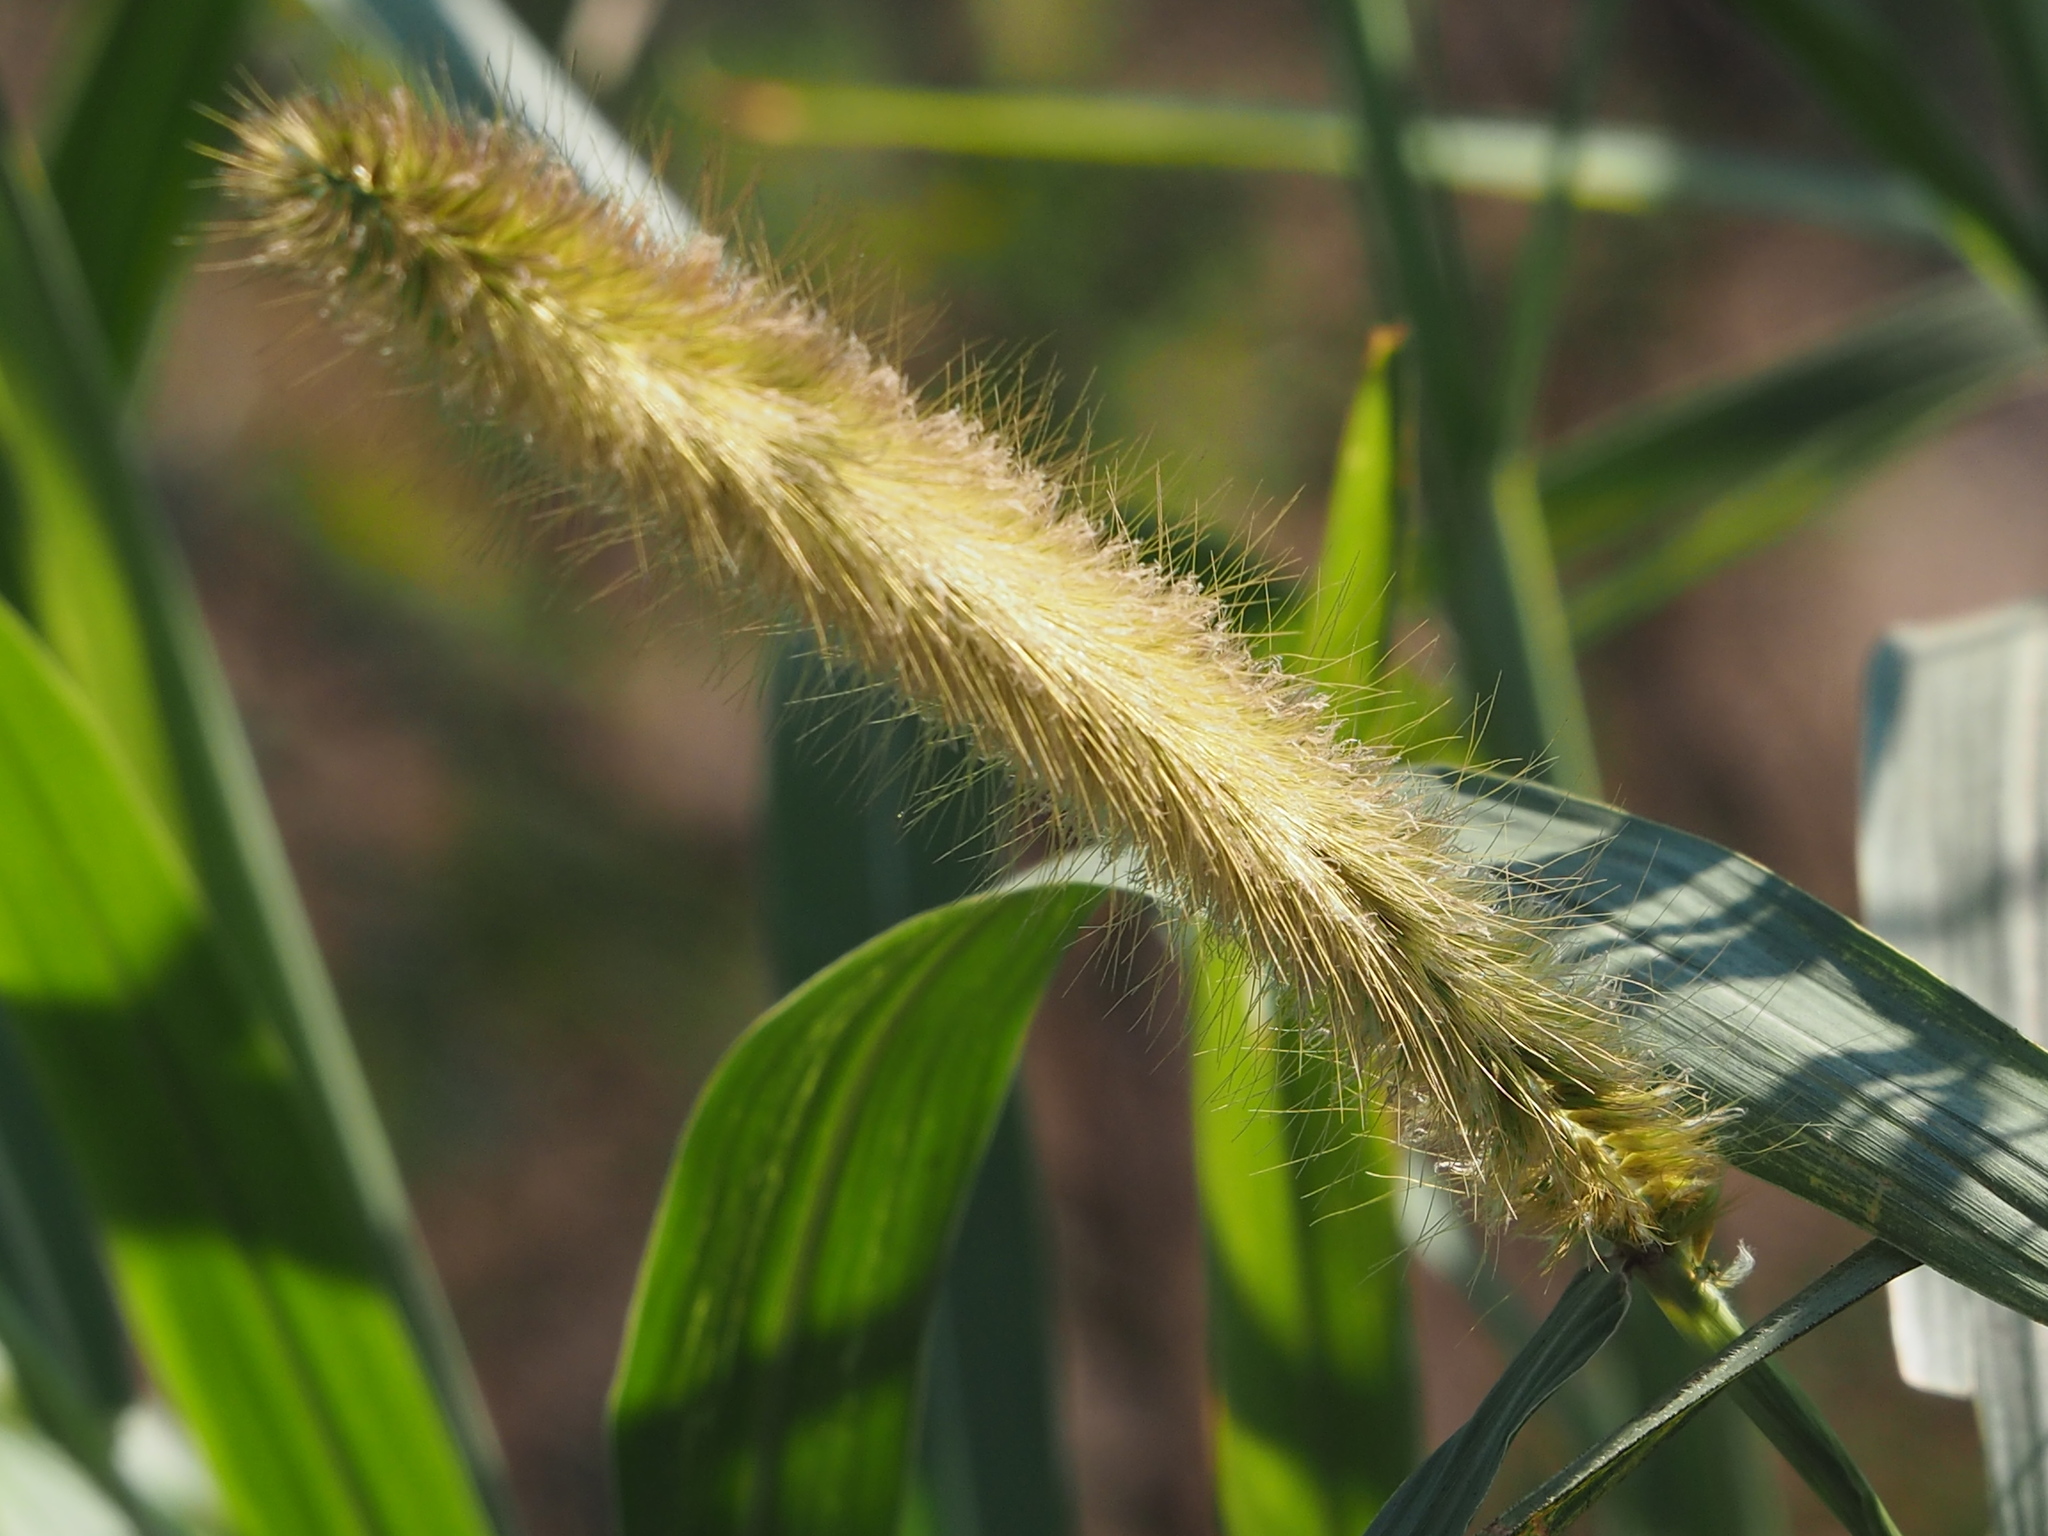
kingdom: Plantae
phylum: Tracheophyta
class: Liliopsida
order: Poales
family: Poaceae
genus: Cenchrus
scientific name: Cenchrus purpureus
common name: Elephant grass
